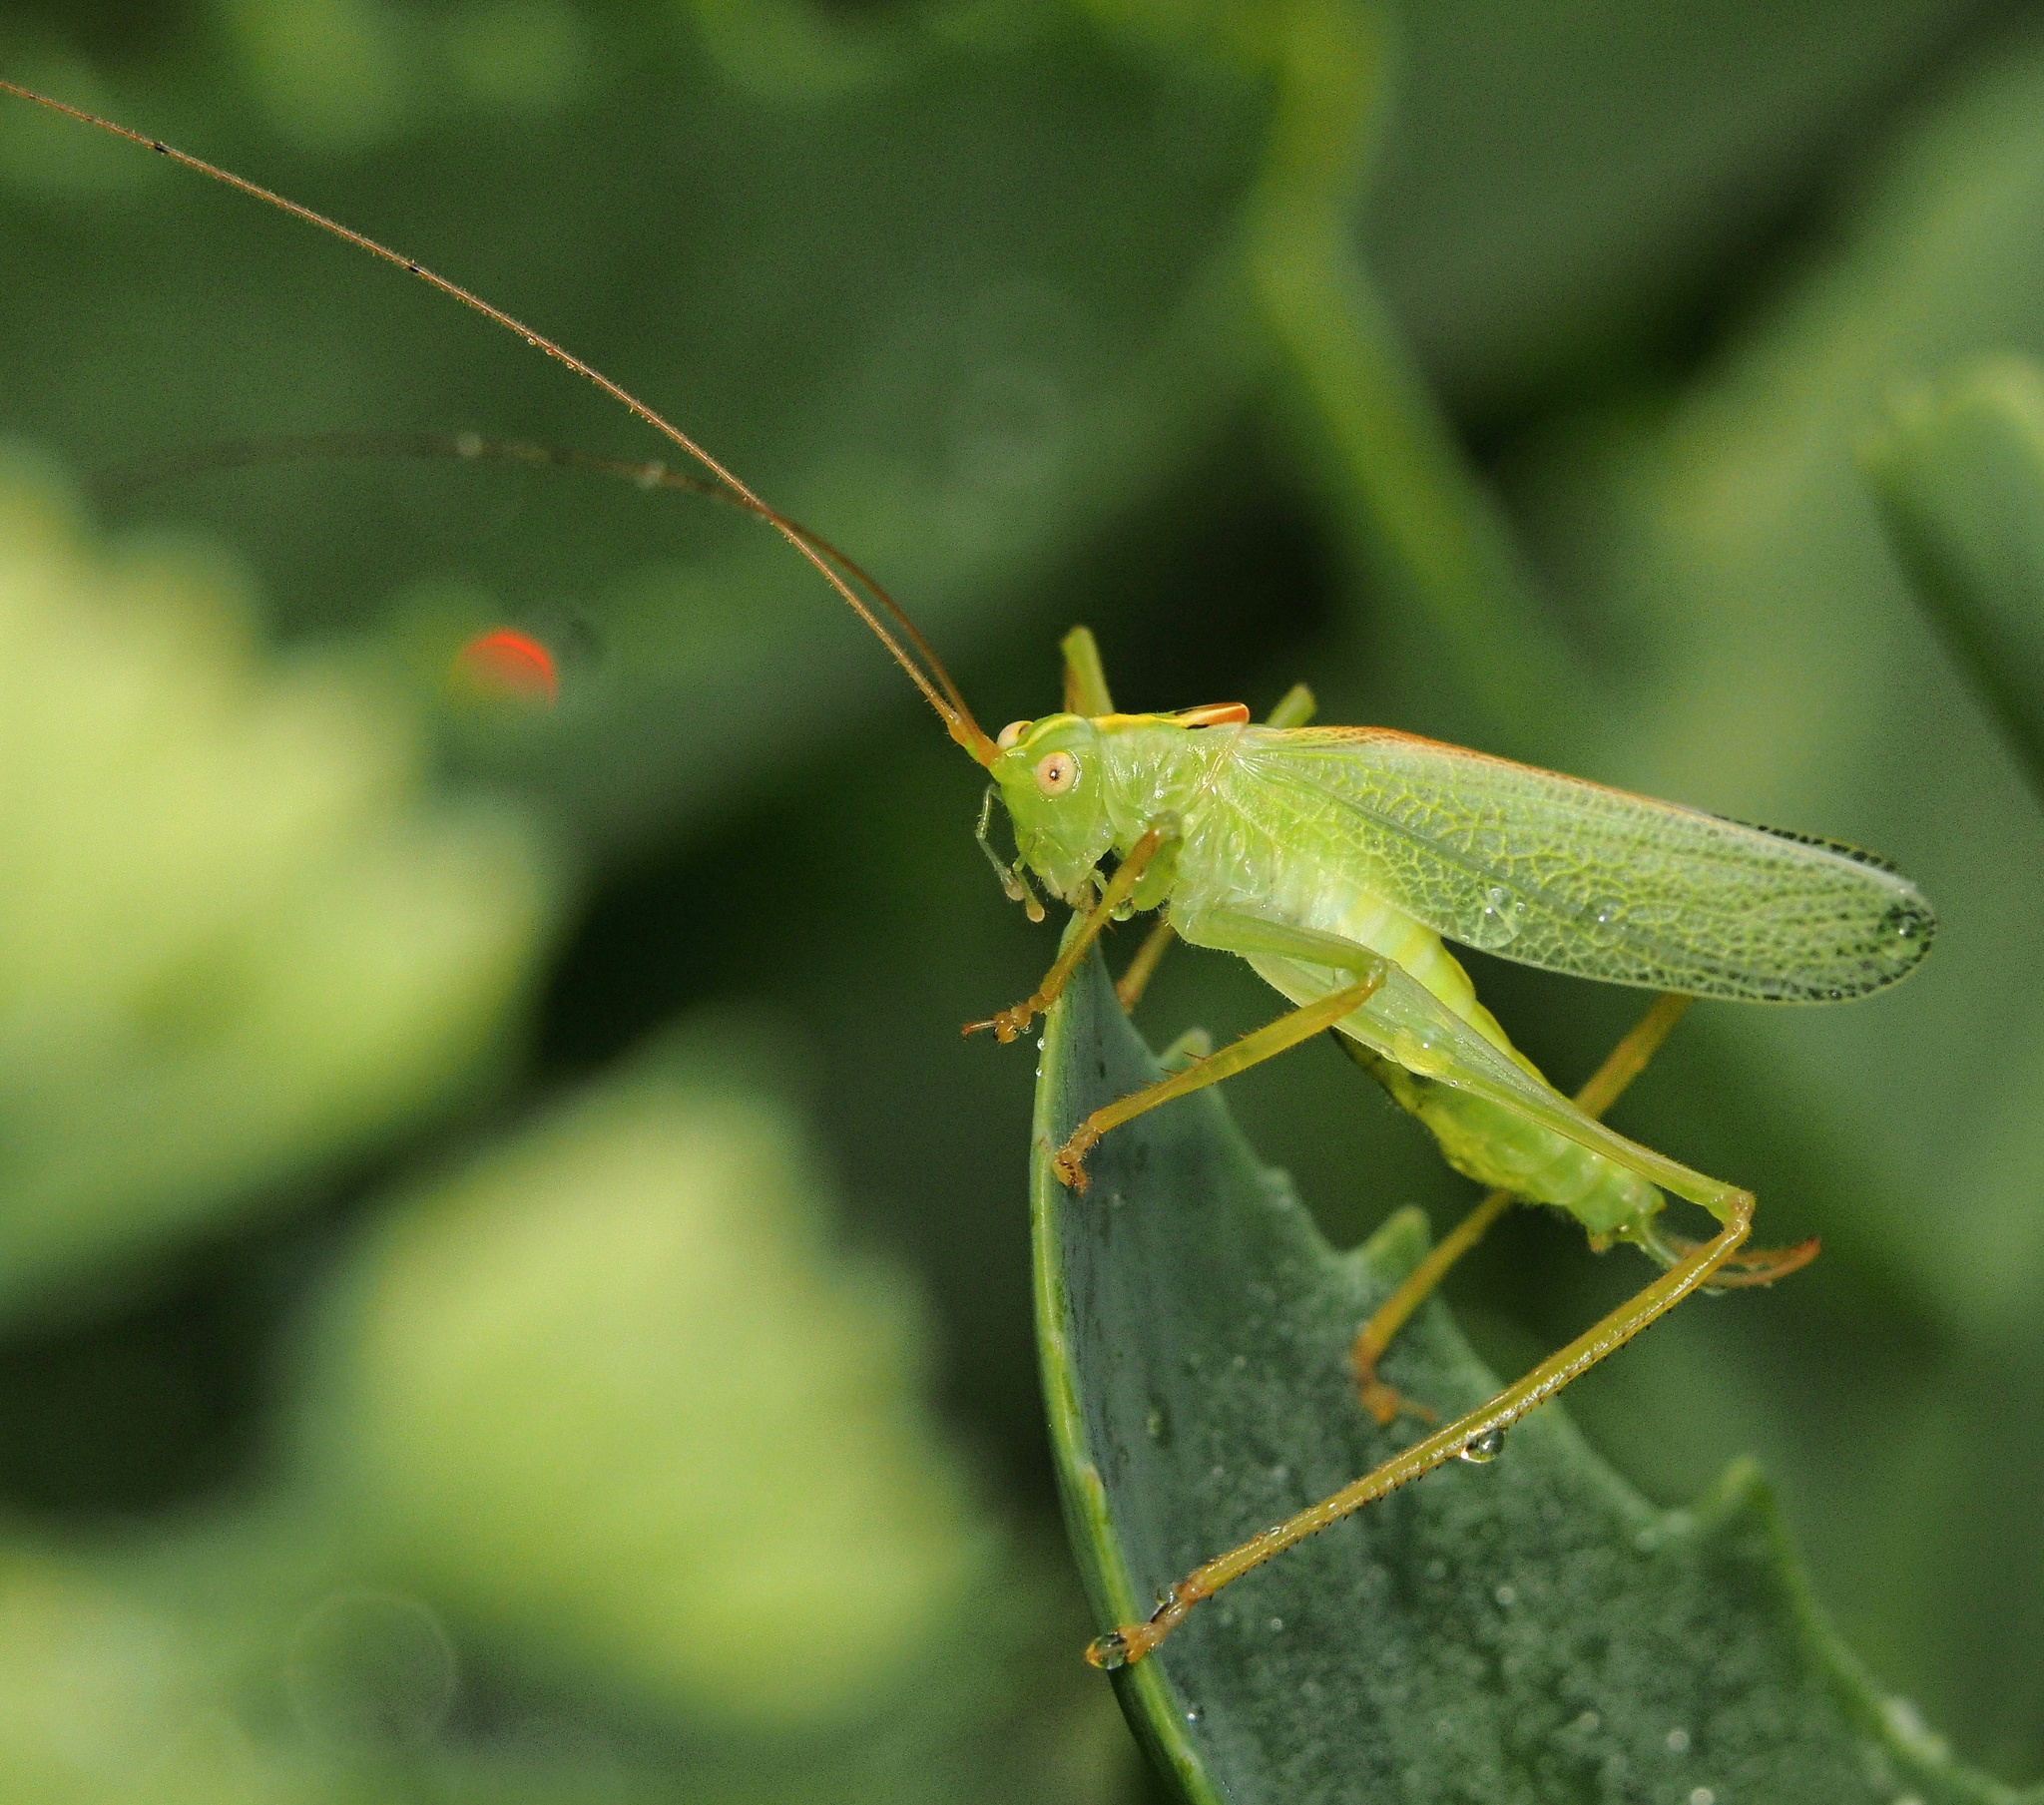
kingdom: Animalia
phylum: Arthropoda
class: Insecta
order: Orthoptera
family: Tettigoniidae
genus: Meconema
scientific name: Meconema thalassinum
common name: Oak bush-cricket
